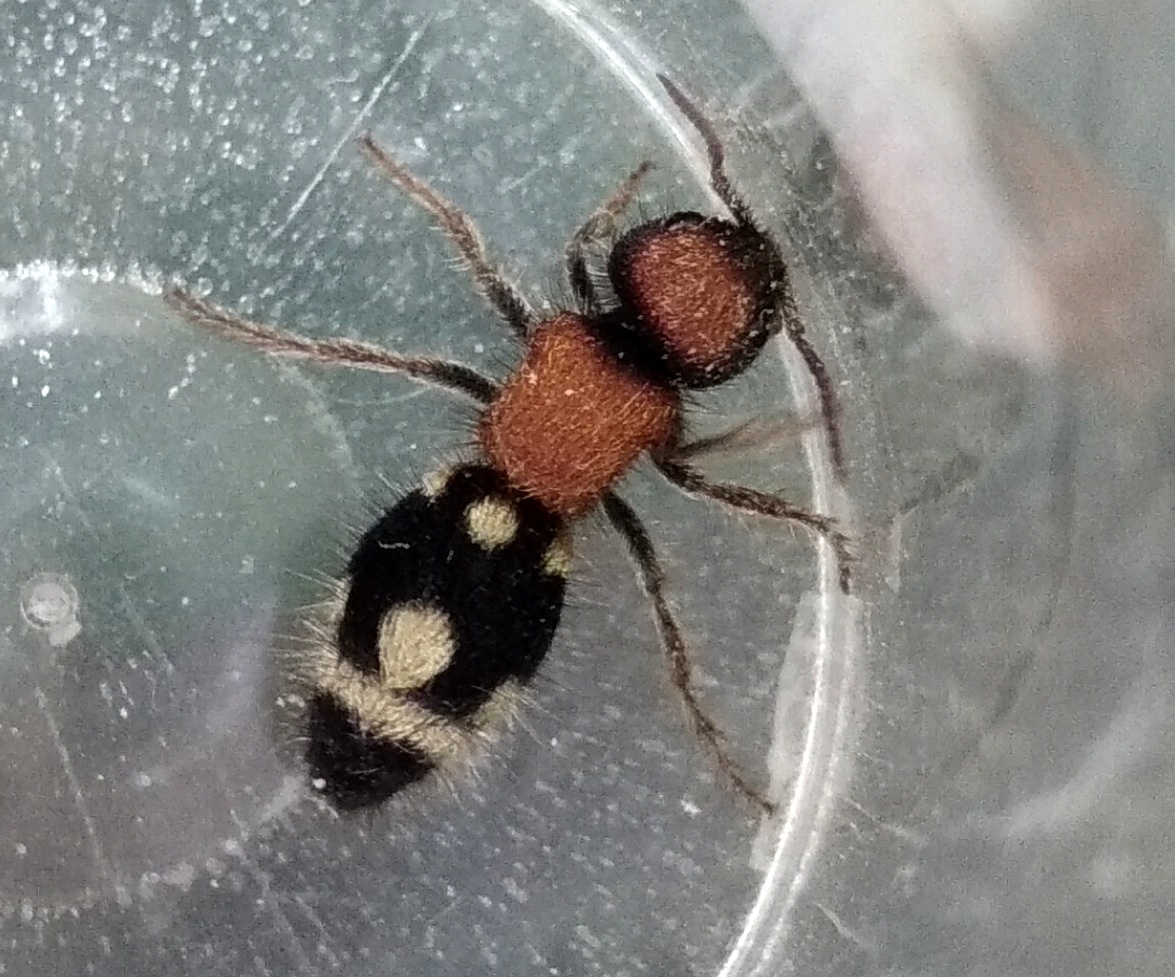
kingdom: Animalia
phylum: Arthropoda
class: Insecta
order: Hymenoptera
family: Mutillidae
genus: Ronisia
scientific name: Ronisia brutia
